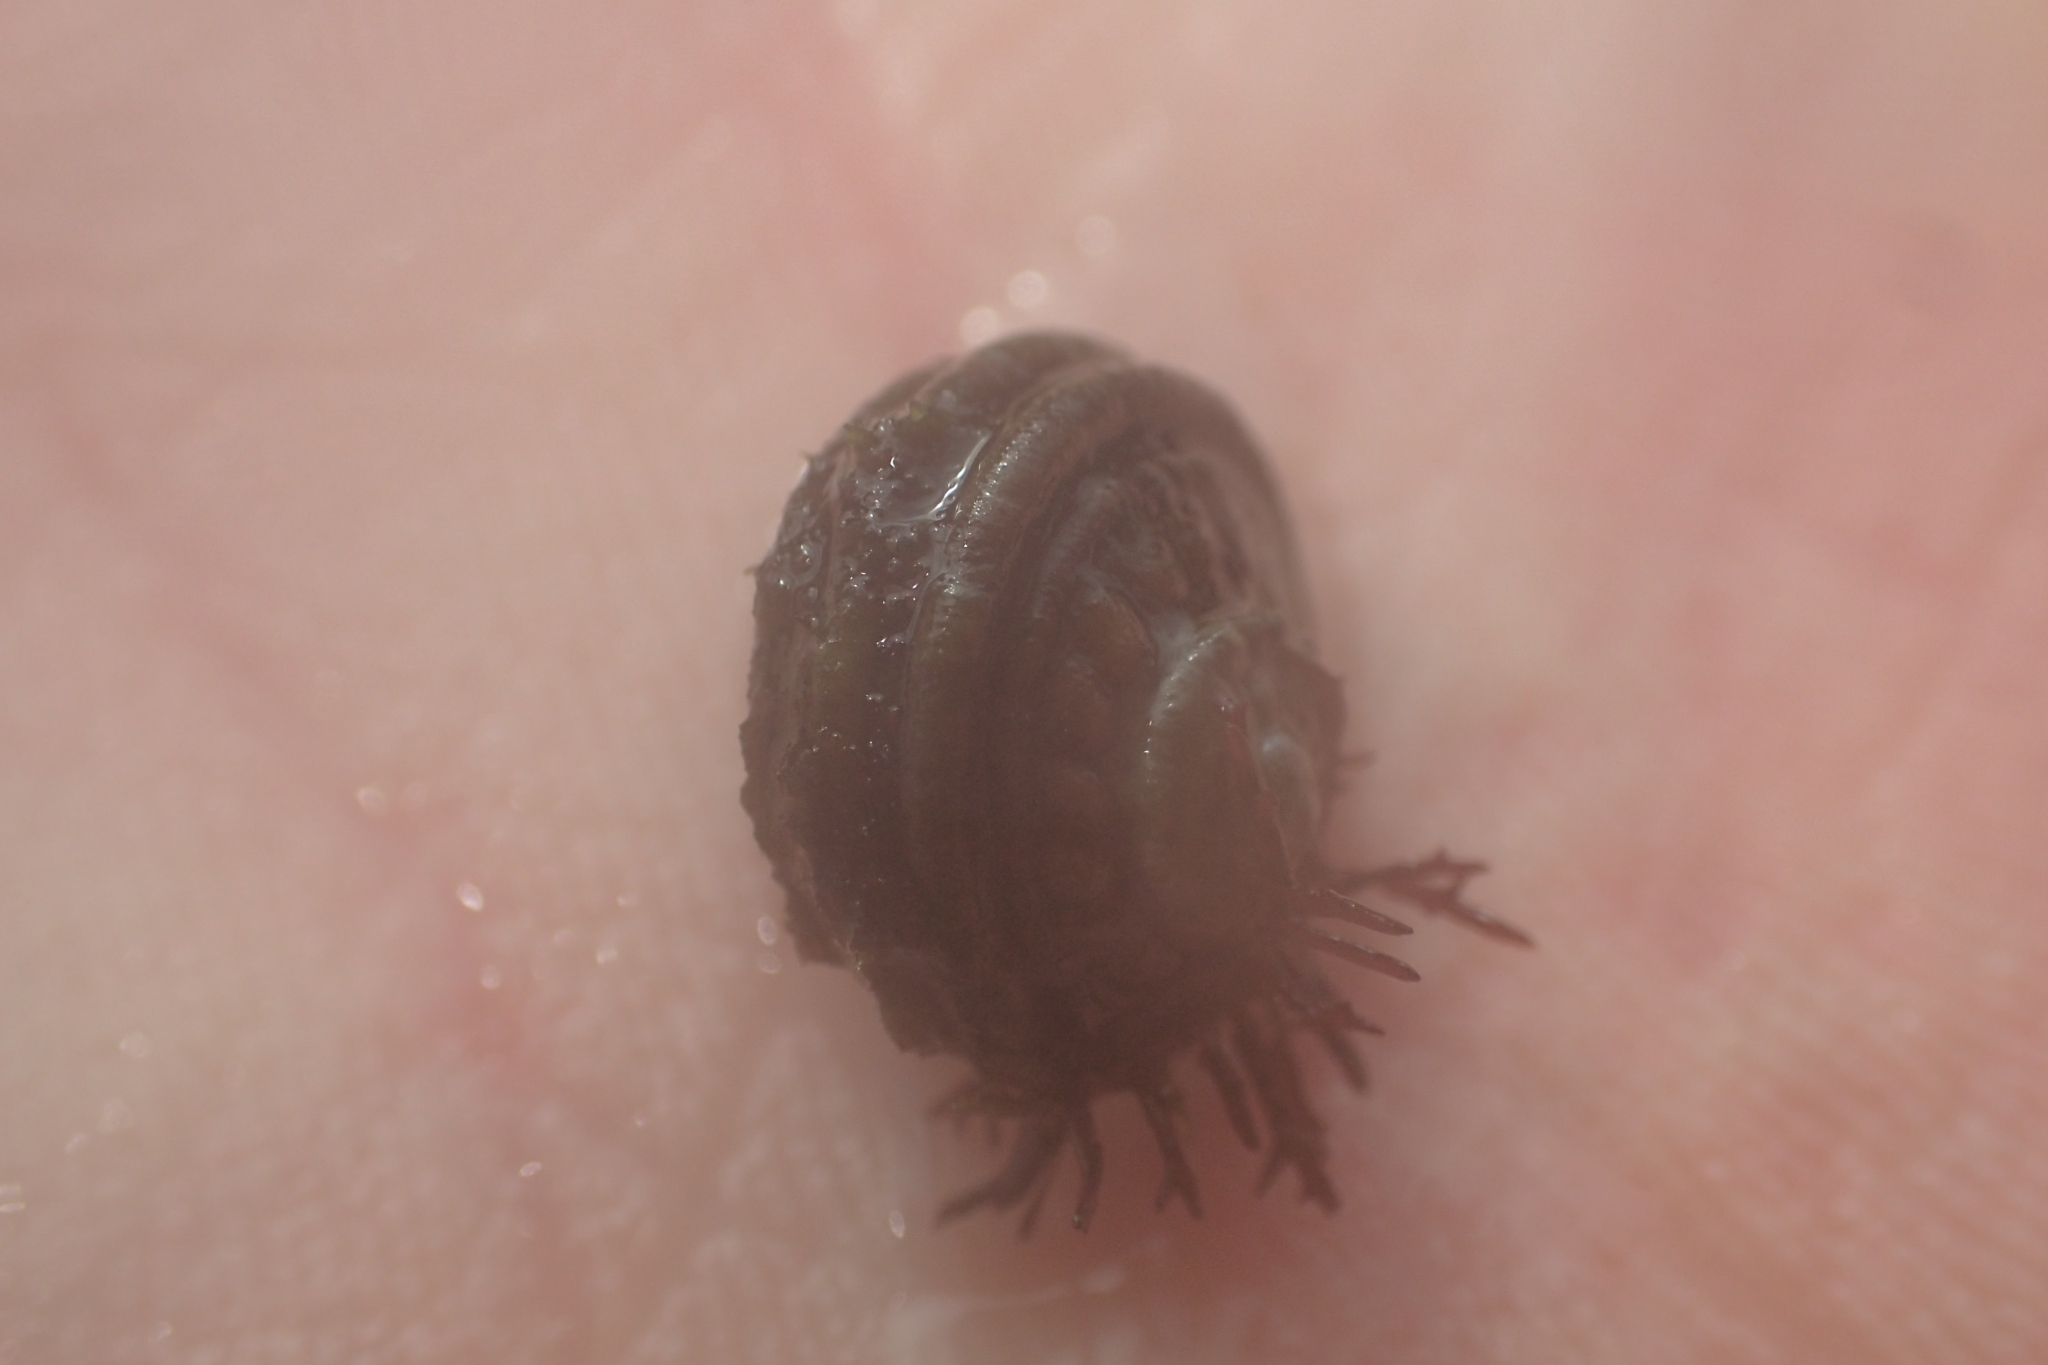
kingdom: Animalia
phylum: Mollusca
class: Gastropoda
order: Trochida
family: Turbinidae
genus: Lunella
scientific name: Lunella smaragda
